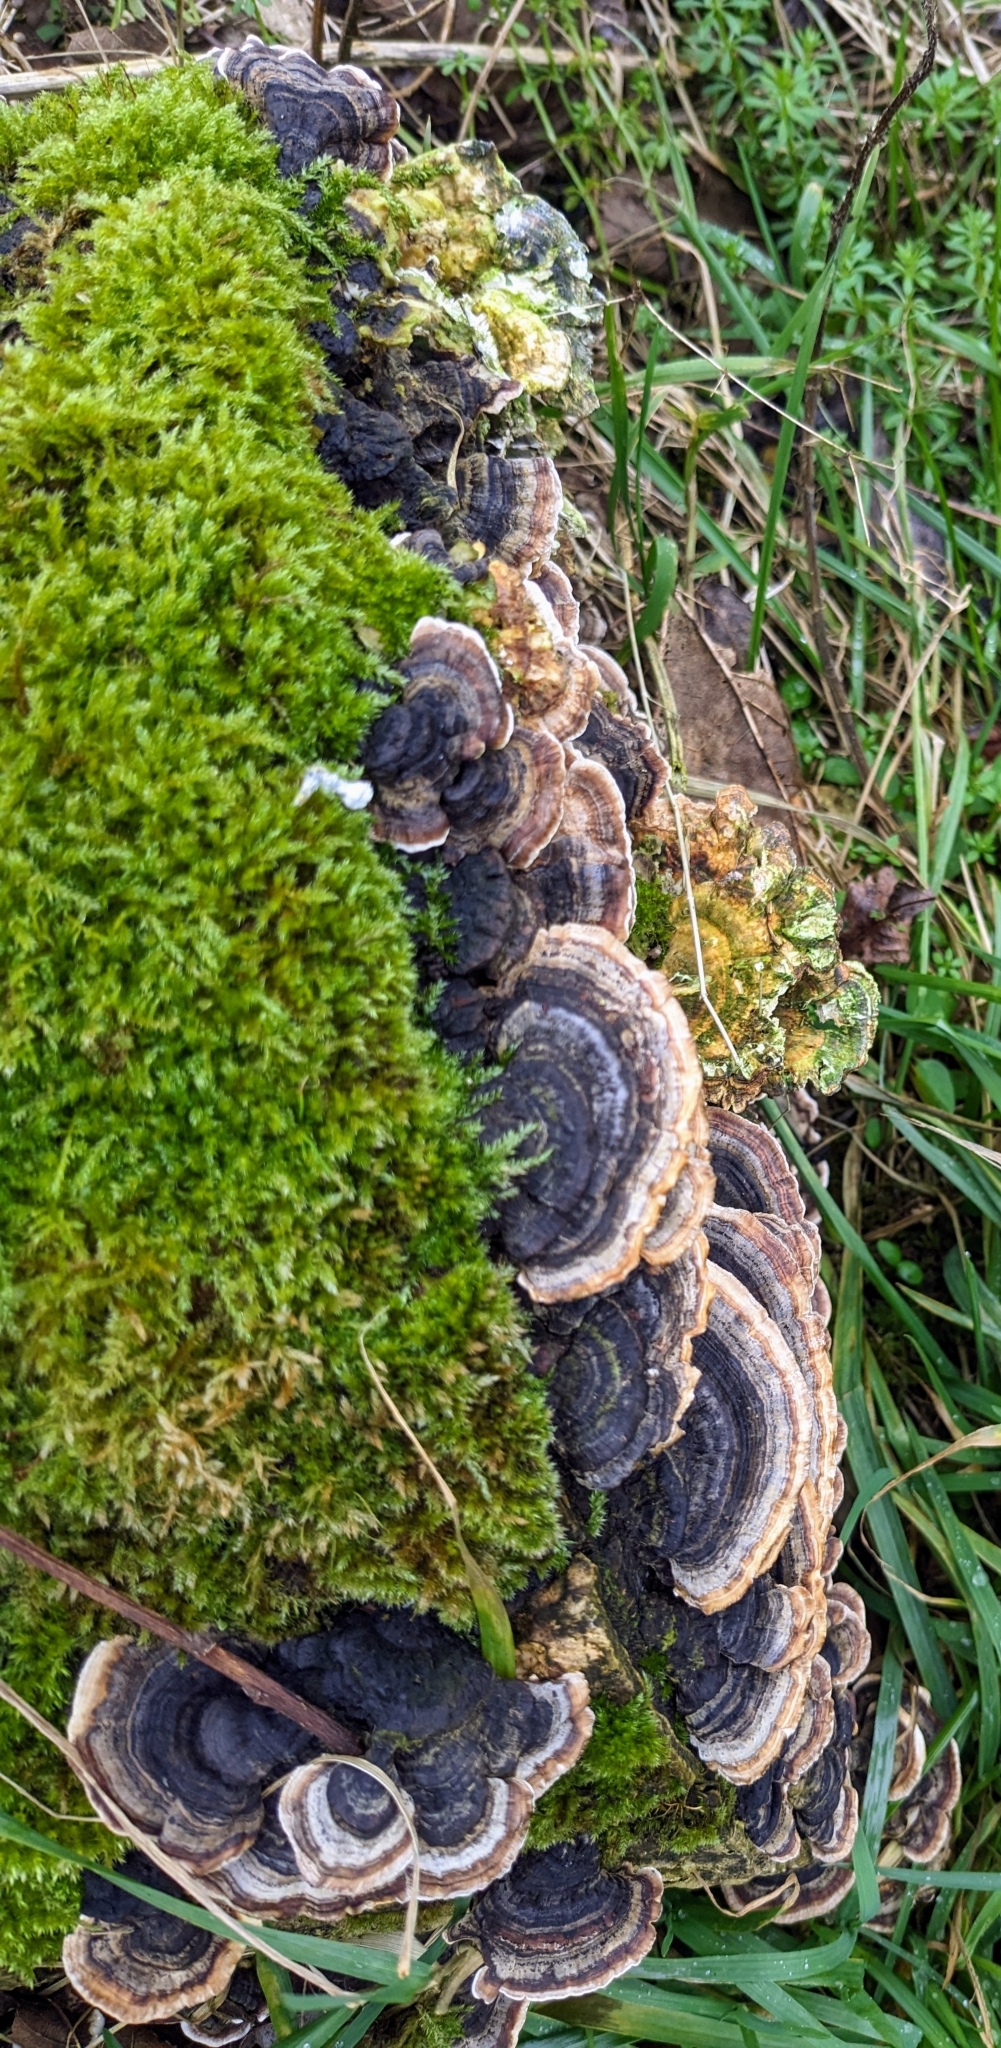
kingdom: Fungi
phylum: Basidiomycota
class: Agaricomycetes
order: Polyporales
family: Polyporaceae
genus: Trametes
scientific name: Trametes versicolor
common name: Turkeytail
